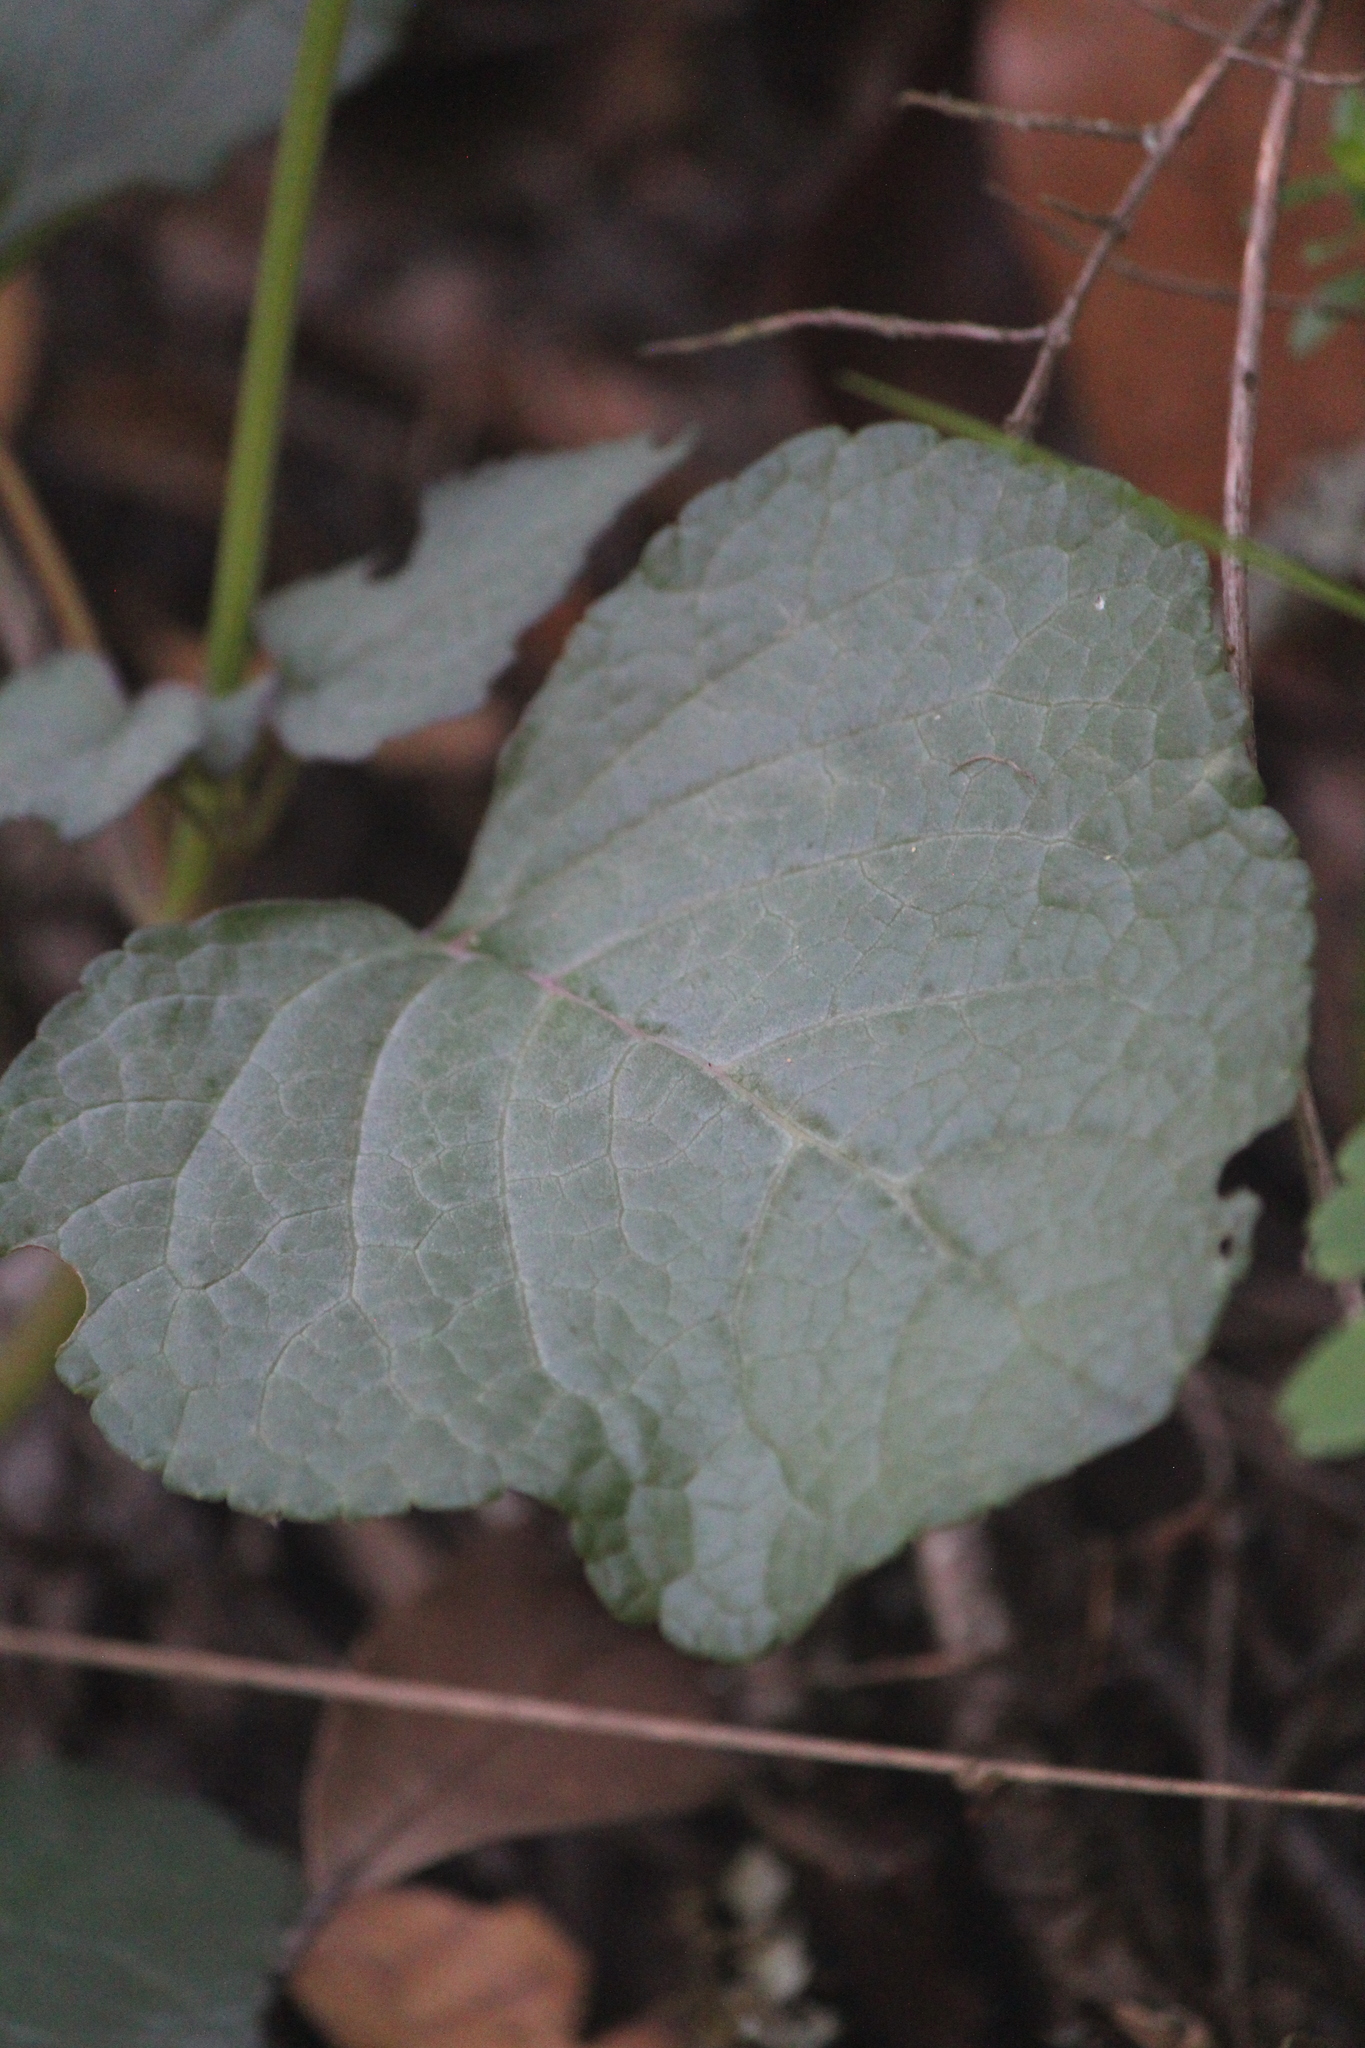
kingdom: Plantae
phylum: Tracheophyta
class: Magnoliopsida
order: Lamiales
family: Lamiaceae
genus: Salvia
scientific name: Salvia prunelloides
